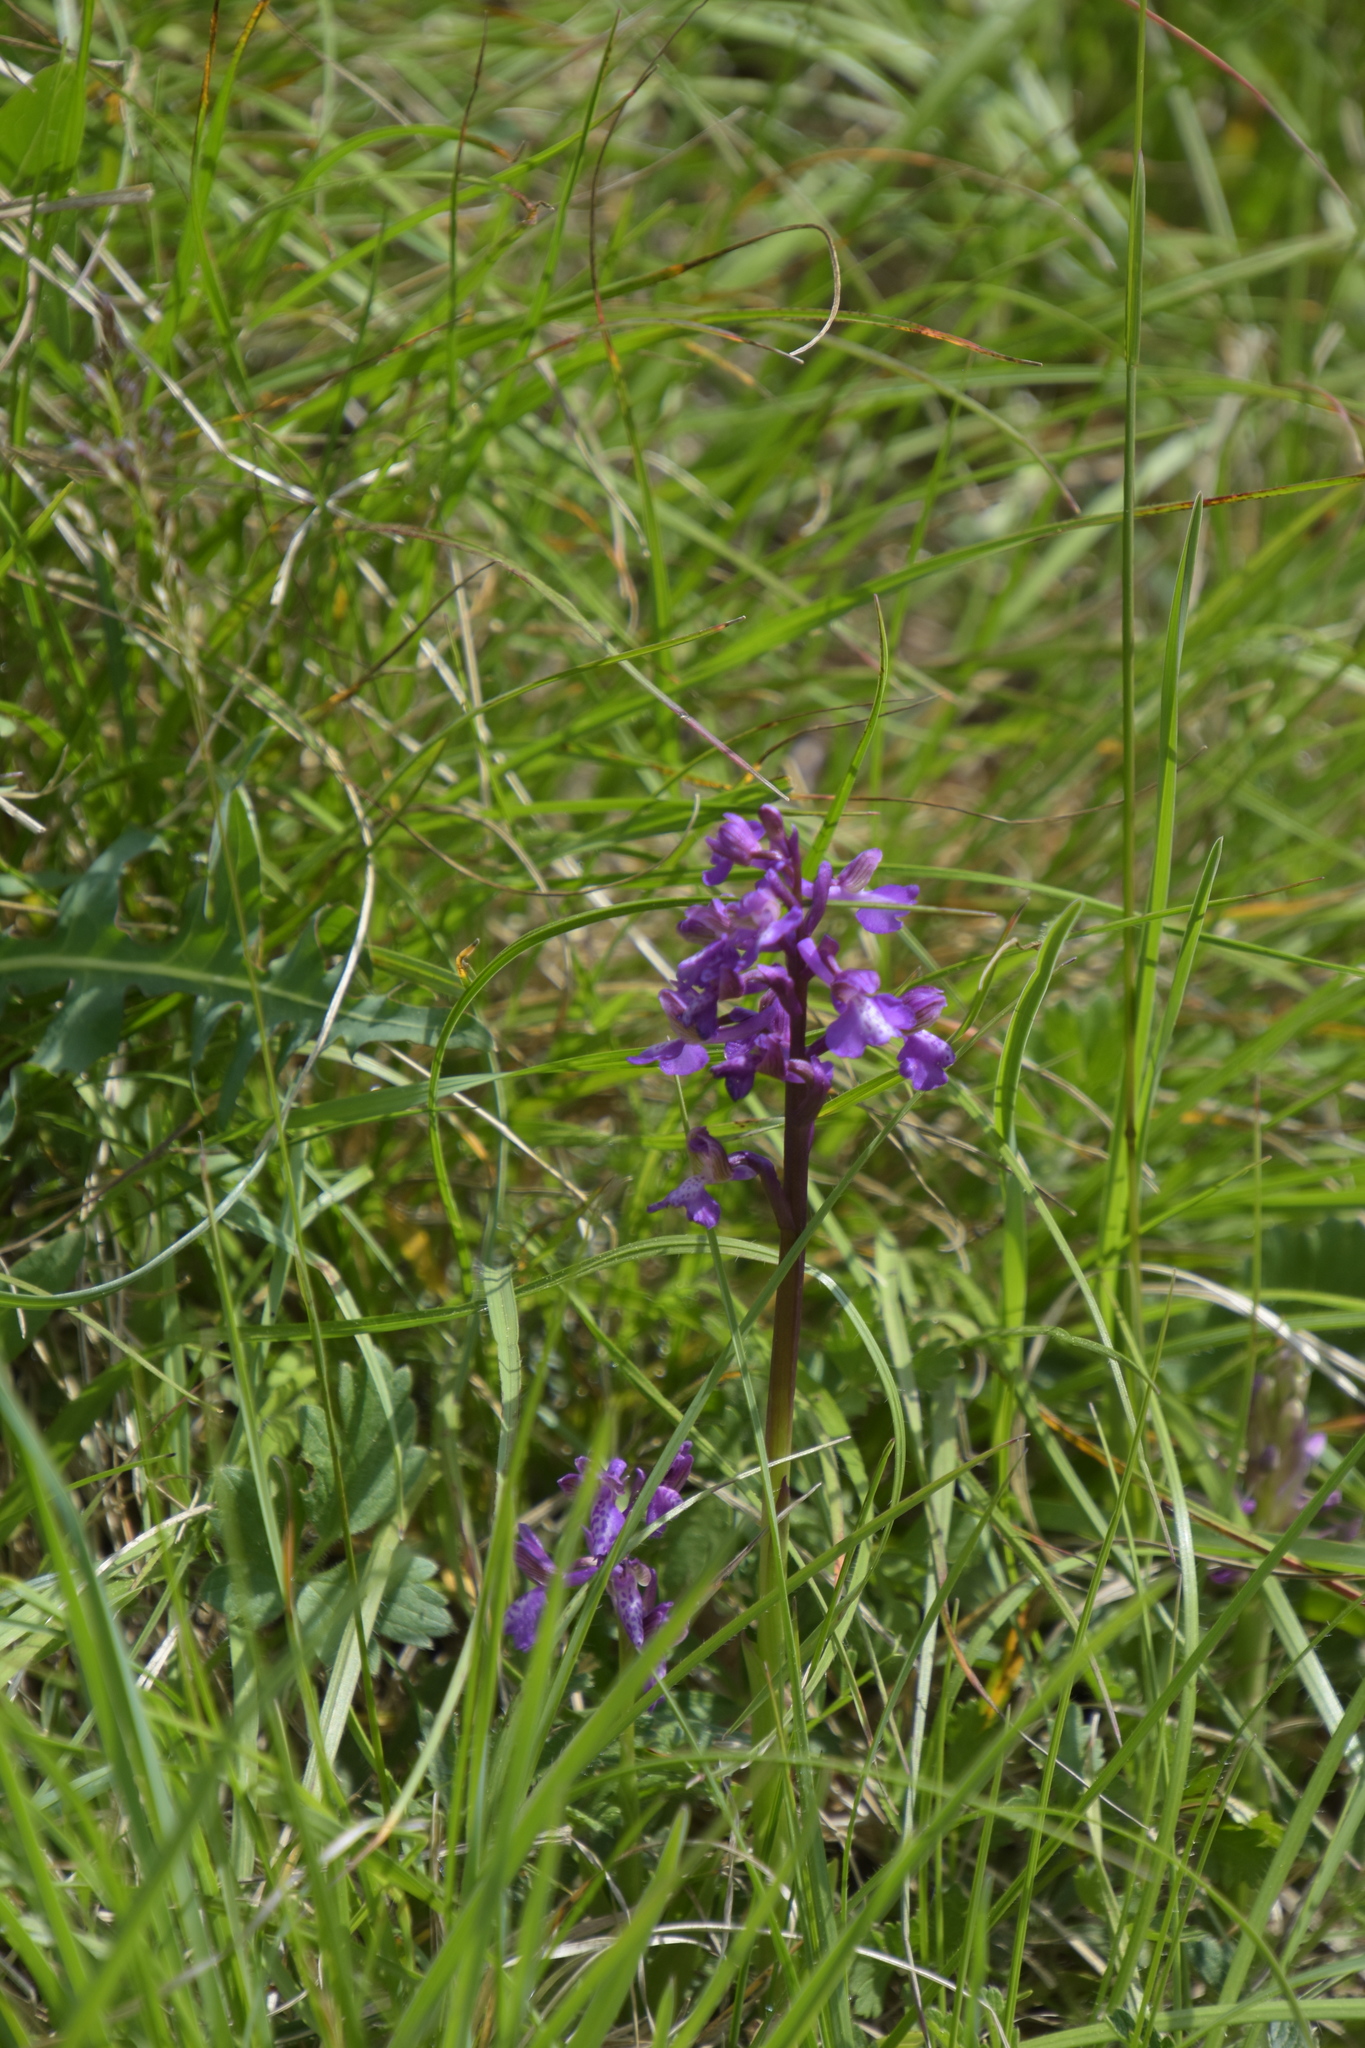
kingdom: Plantae
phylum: Tracheophyta
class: Liliopsida
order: Asparagales
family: Orchidaceae
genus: Anacamptis
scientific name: Anacamptis morio
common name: Green-winged orchid
